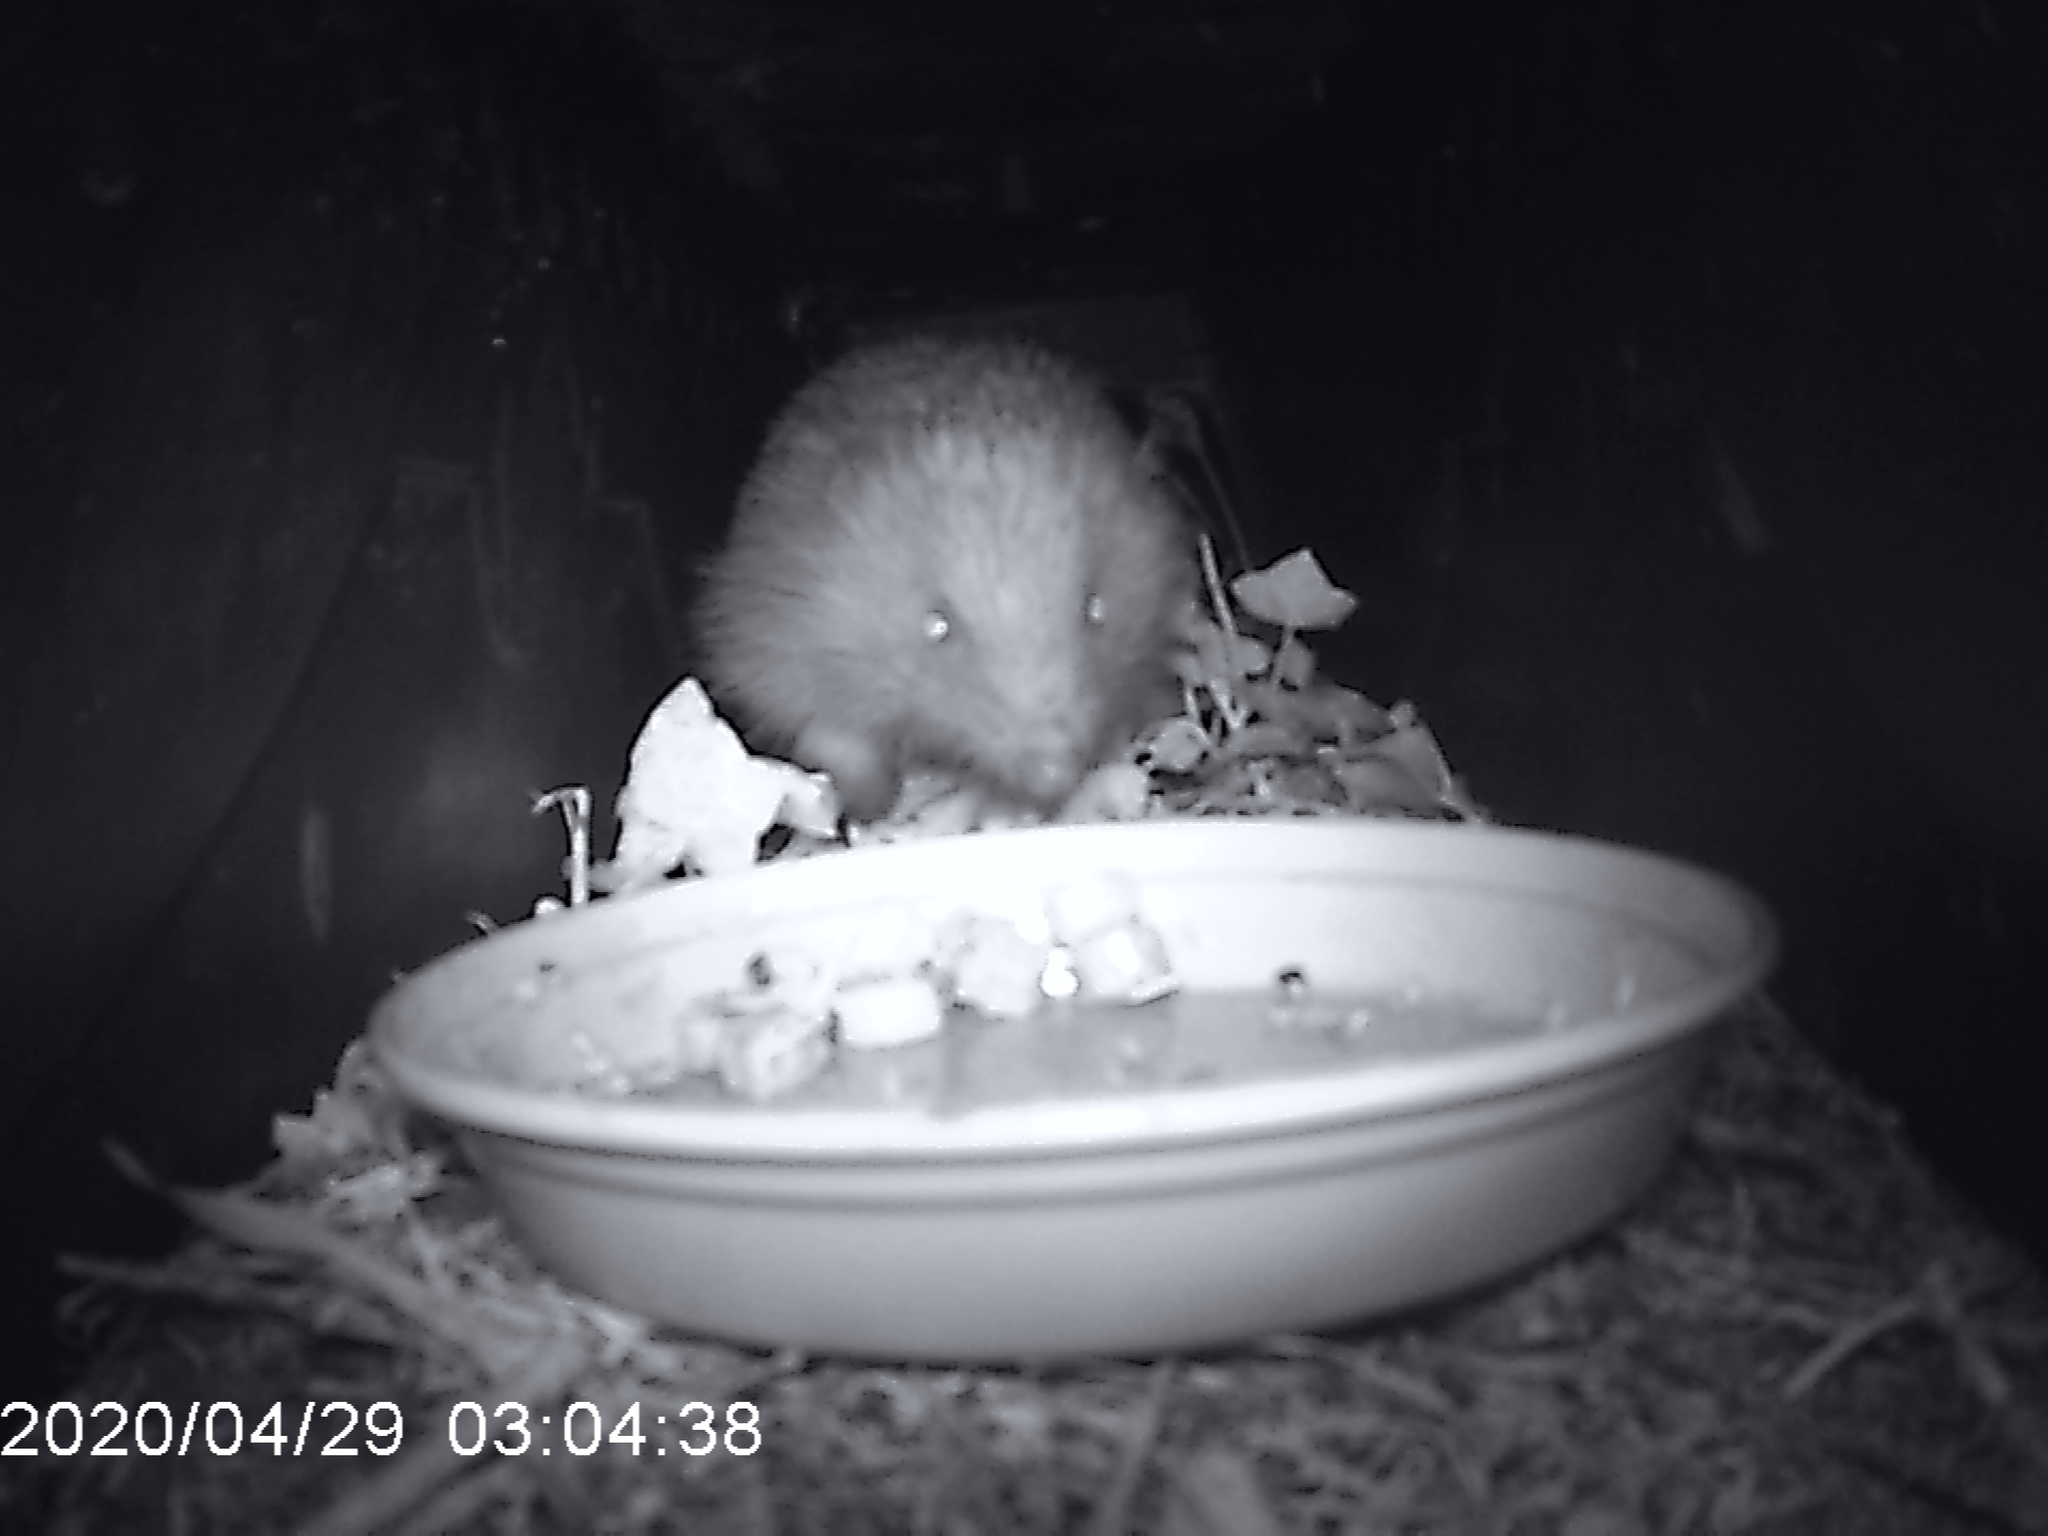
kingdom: Animalia
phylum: Chordata
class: Mammalia
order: Erinaceomorpha
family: Erinaceidae
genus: Erinaceus
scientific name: Erinaceus europaeus
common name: West european hedgehog
